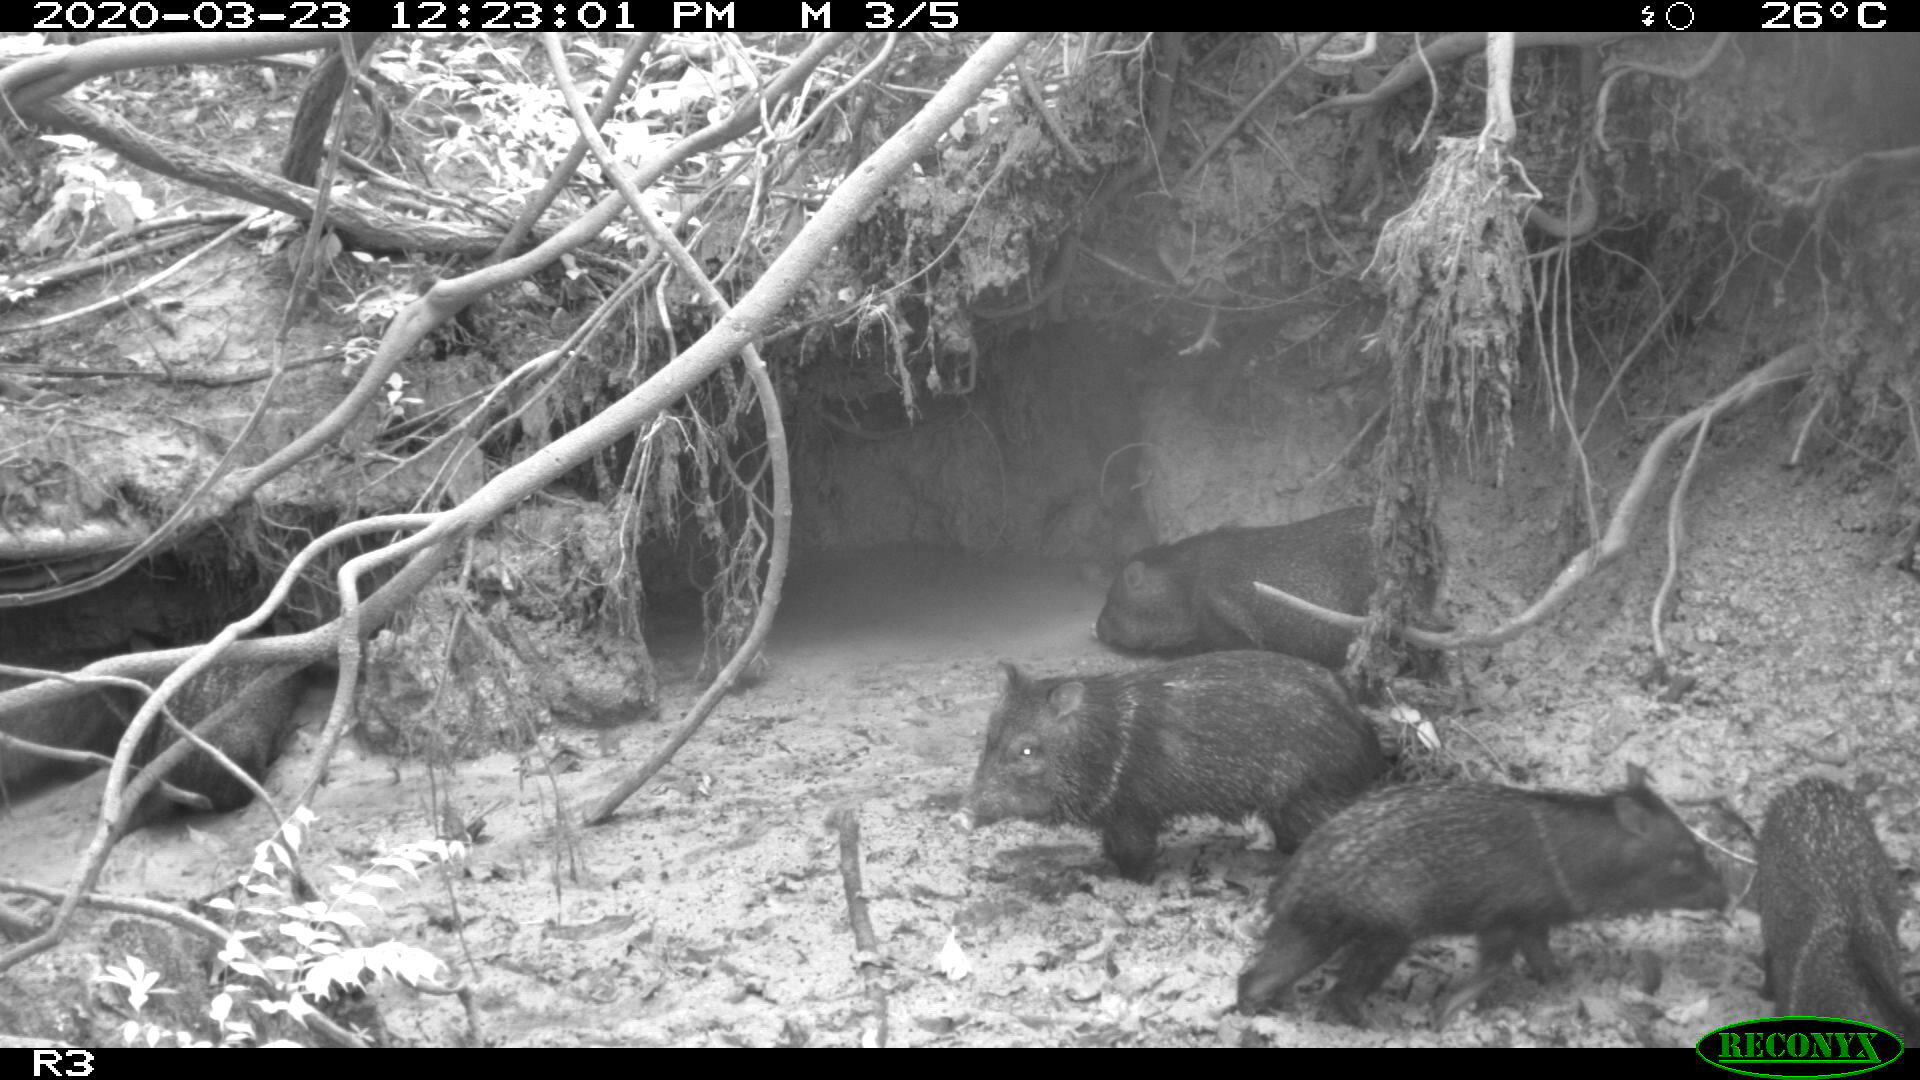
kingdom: Animalia
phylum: Chordata
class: Mammalia
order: Artiodactyla
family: Tayassuidae
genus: Pecari
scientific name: Pecari tajacu
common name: Collared peccary
